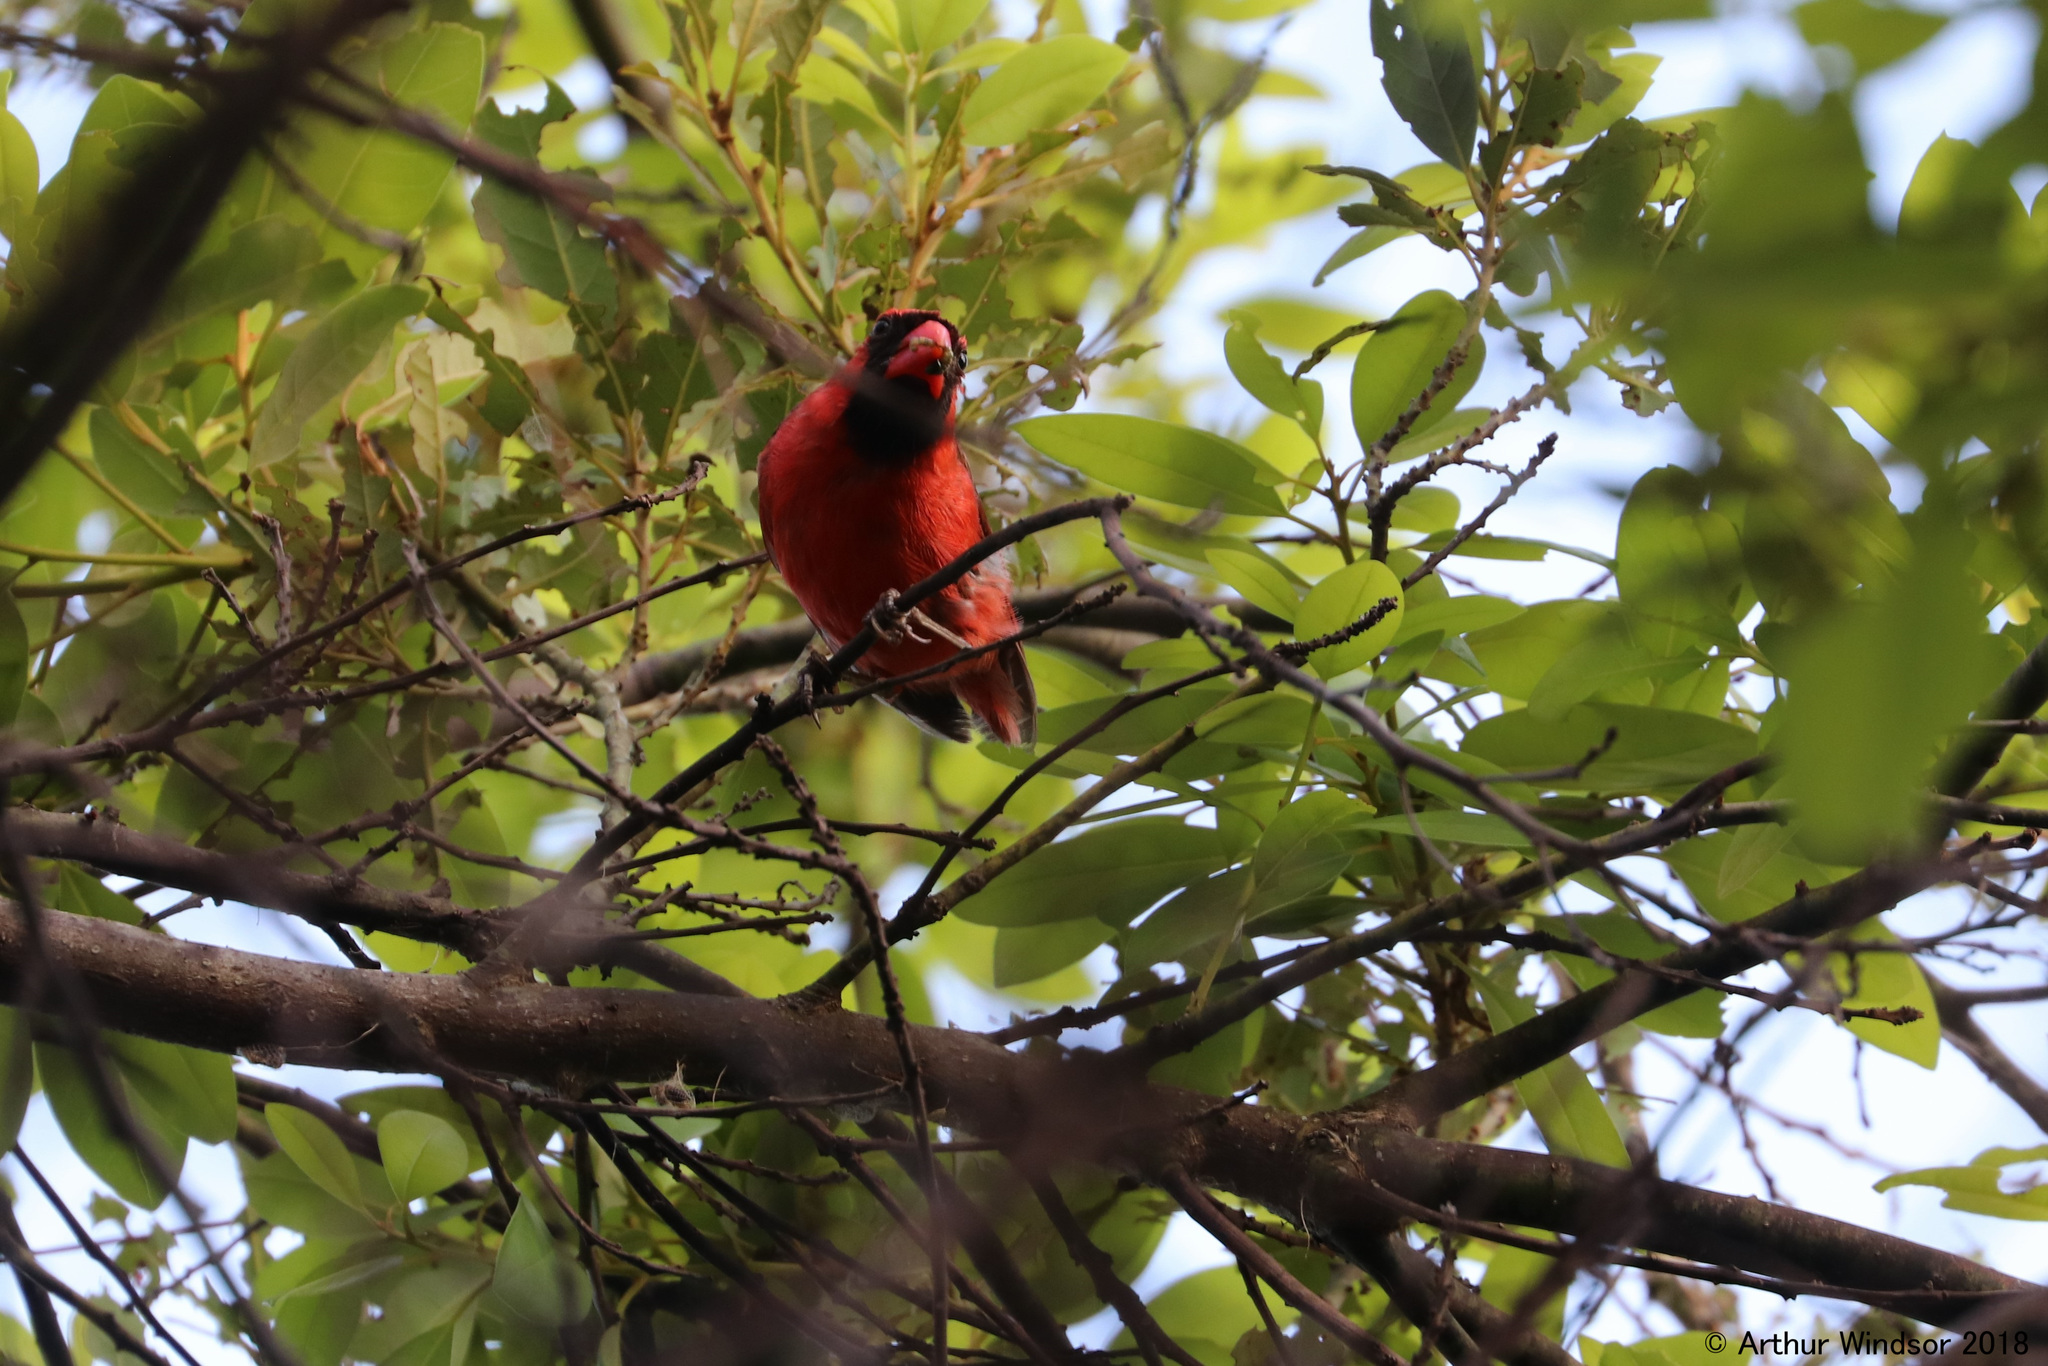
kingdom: Animalia
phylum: Chordata
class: Aves
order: Passeriformes
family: Cardinalidae
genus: Cardinalis
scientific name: Cardinalis cardinalis
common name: Northern cardinal
